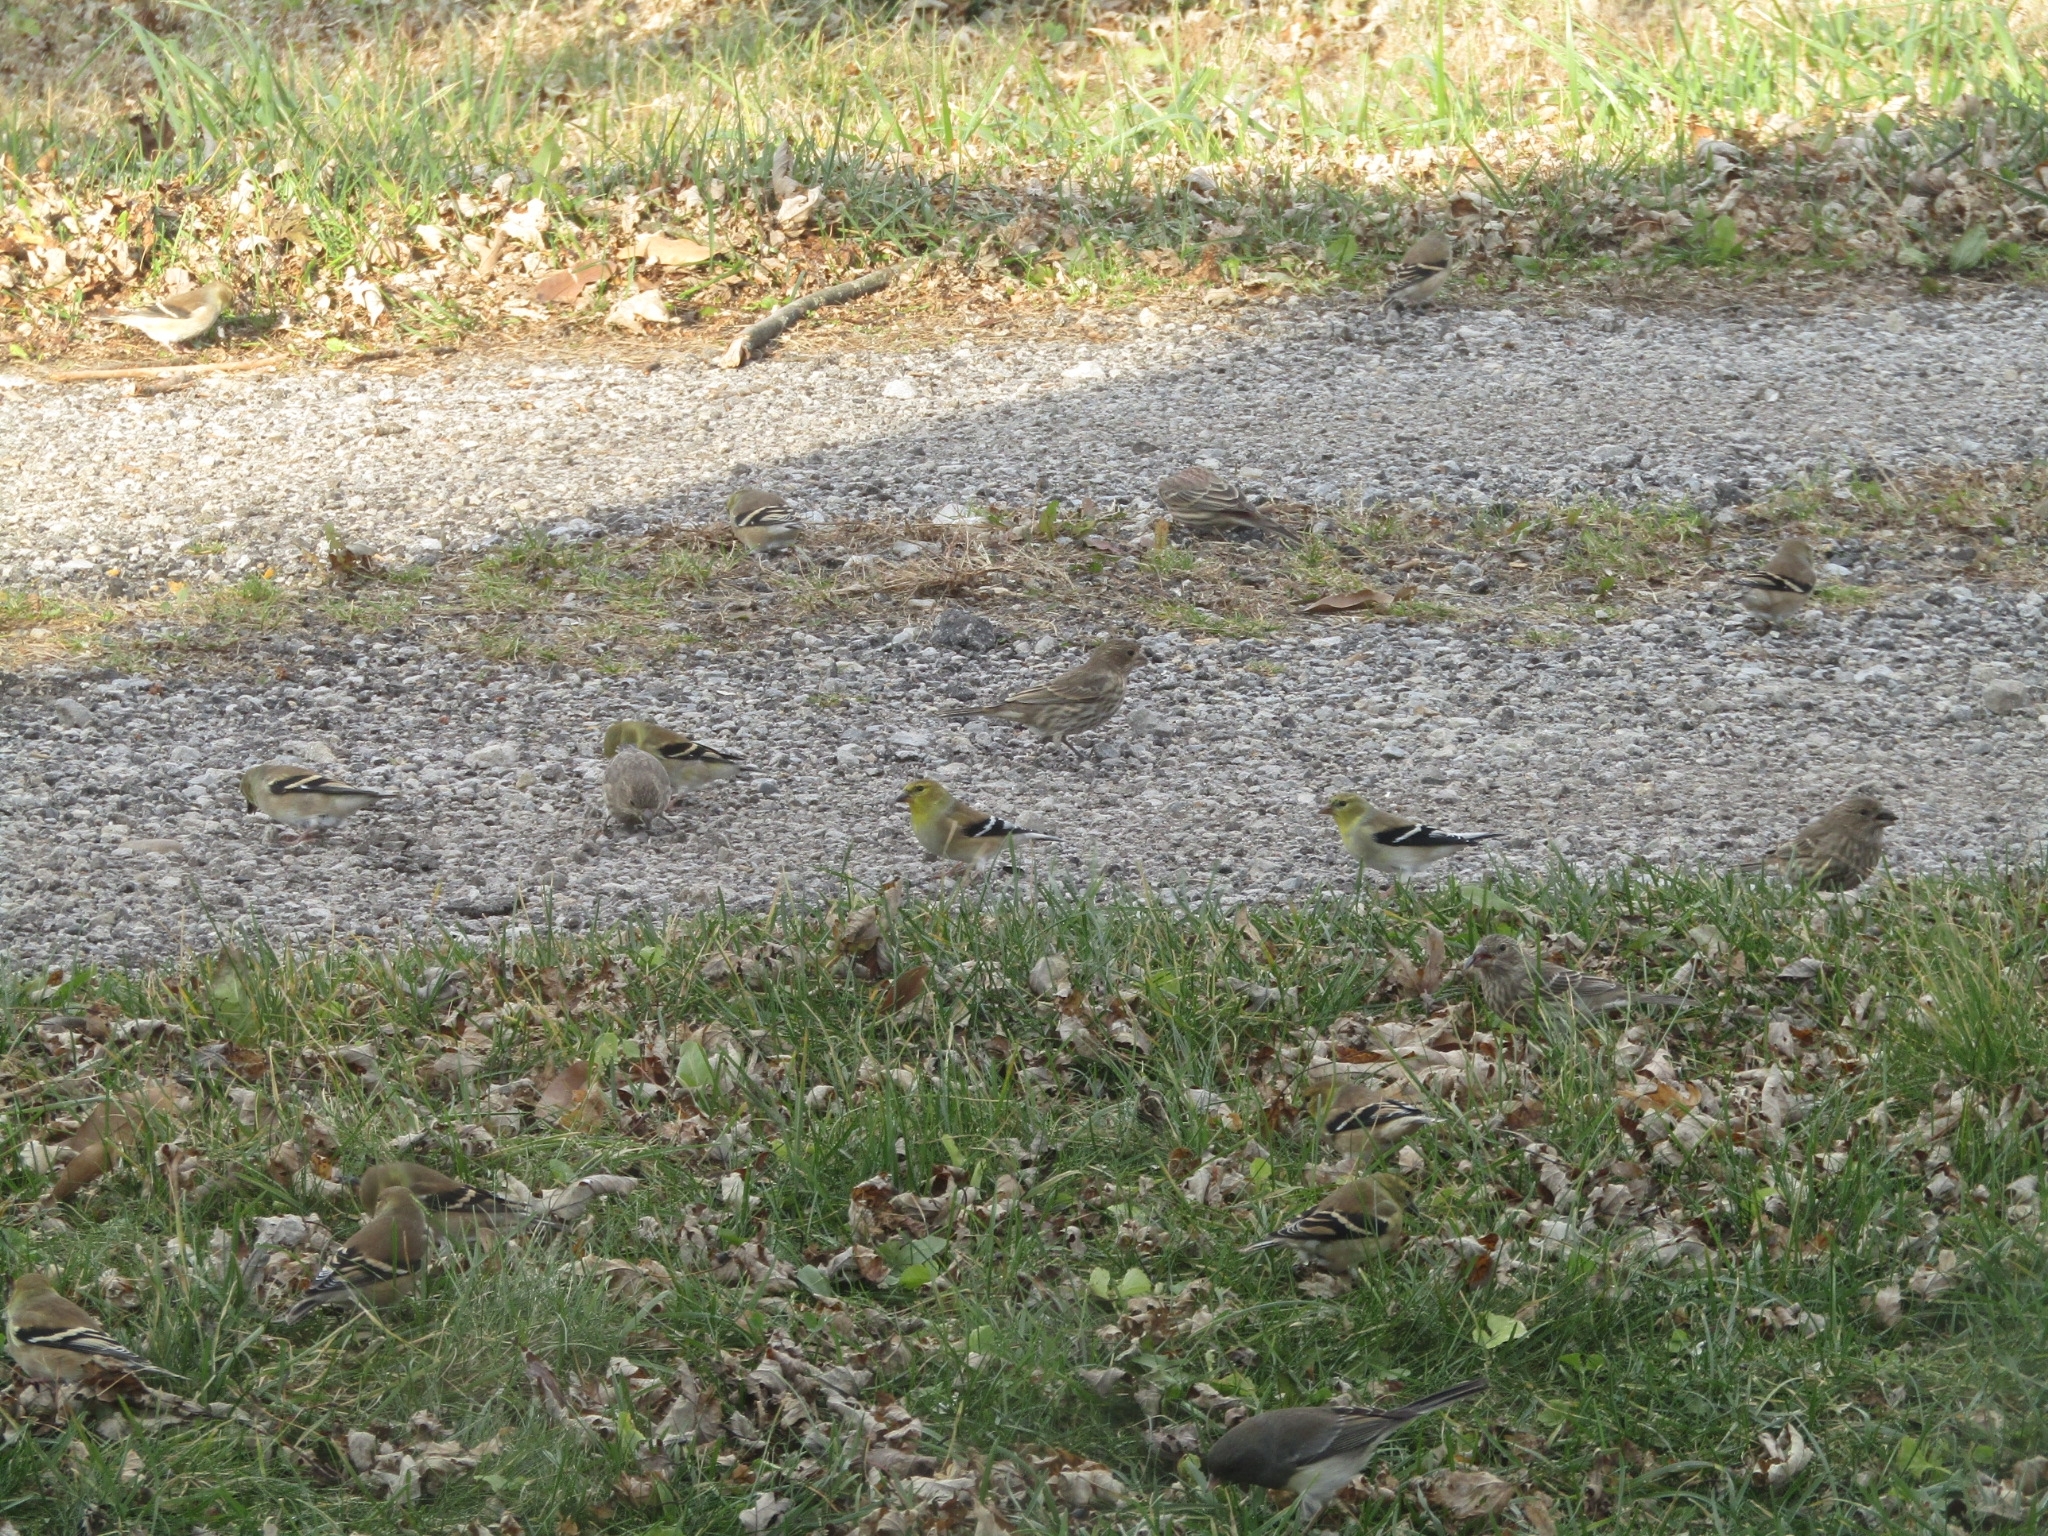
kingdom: Animalia
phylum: Chordata
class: Aves
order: Passeriformes
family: Fringillidae
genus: Spinus
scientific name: Spinus tristis
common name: American goldfinch
